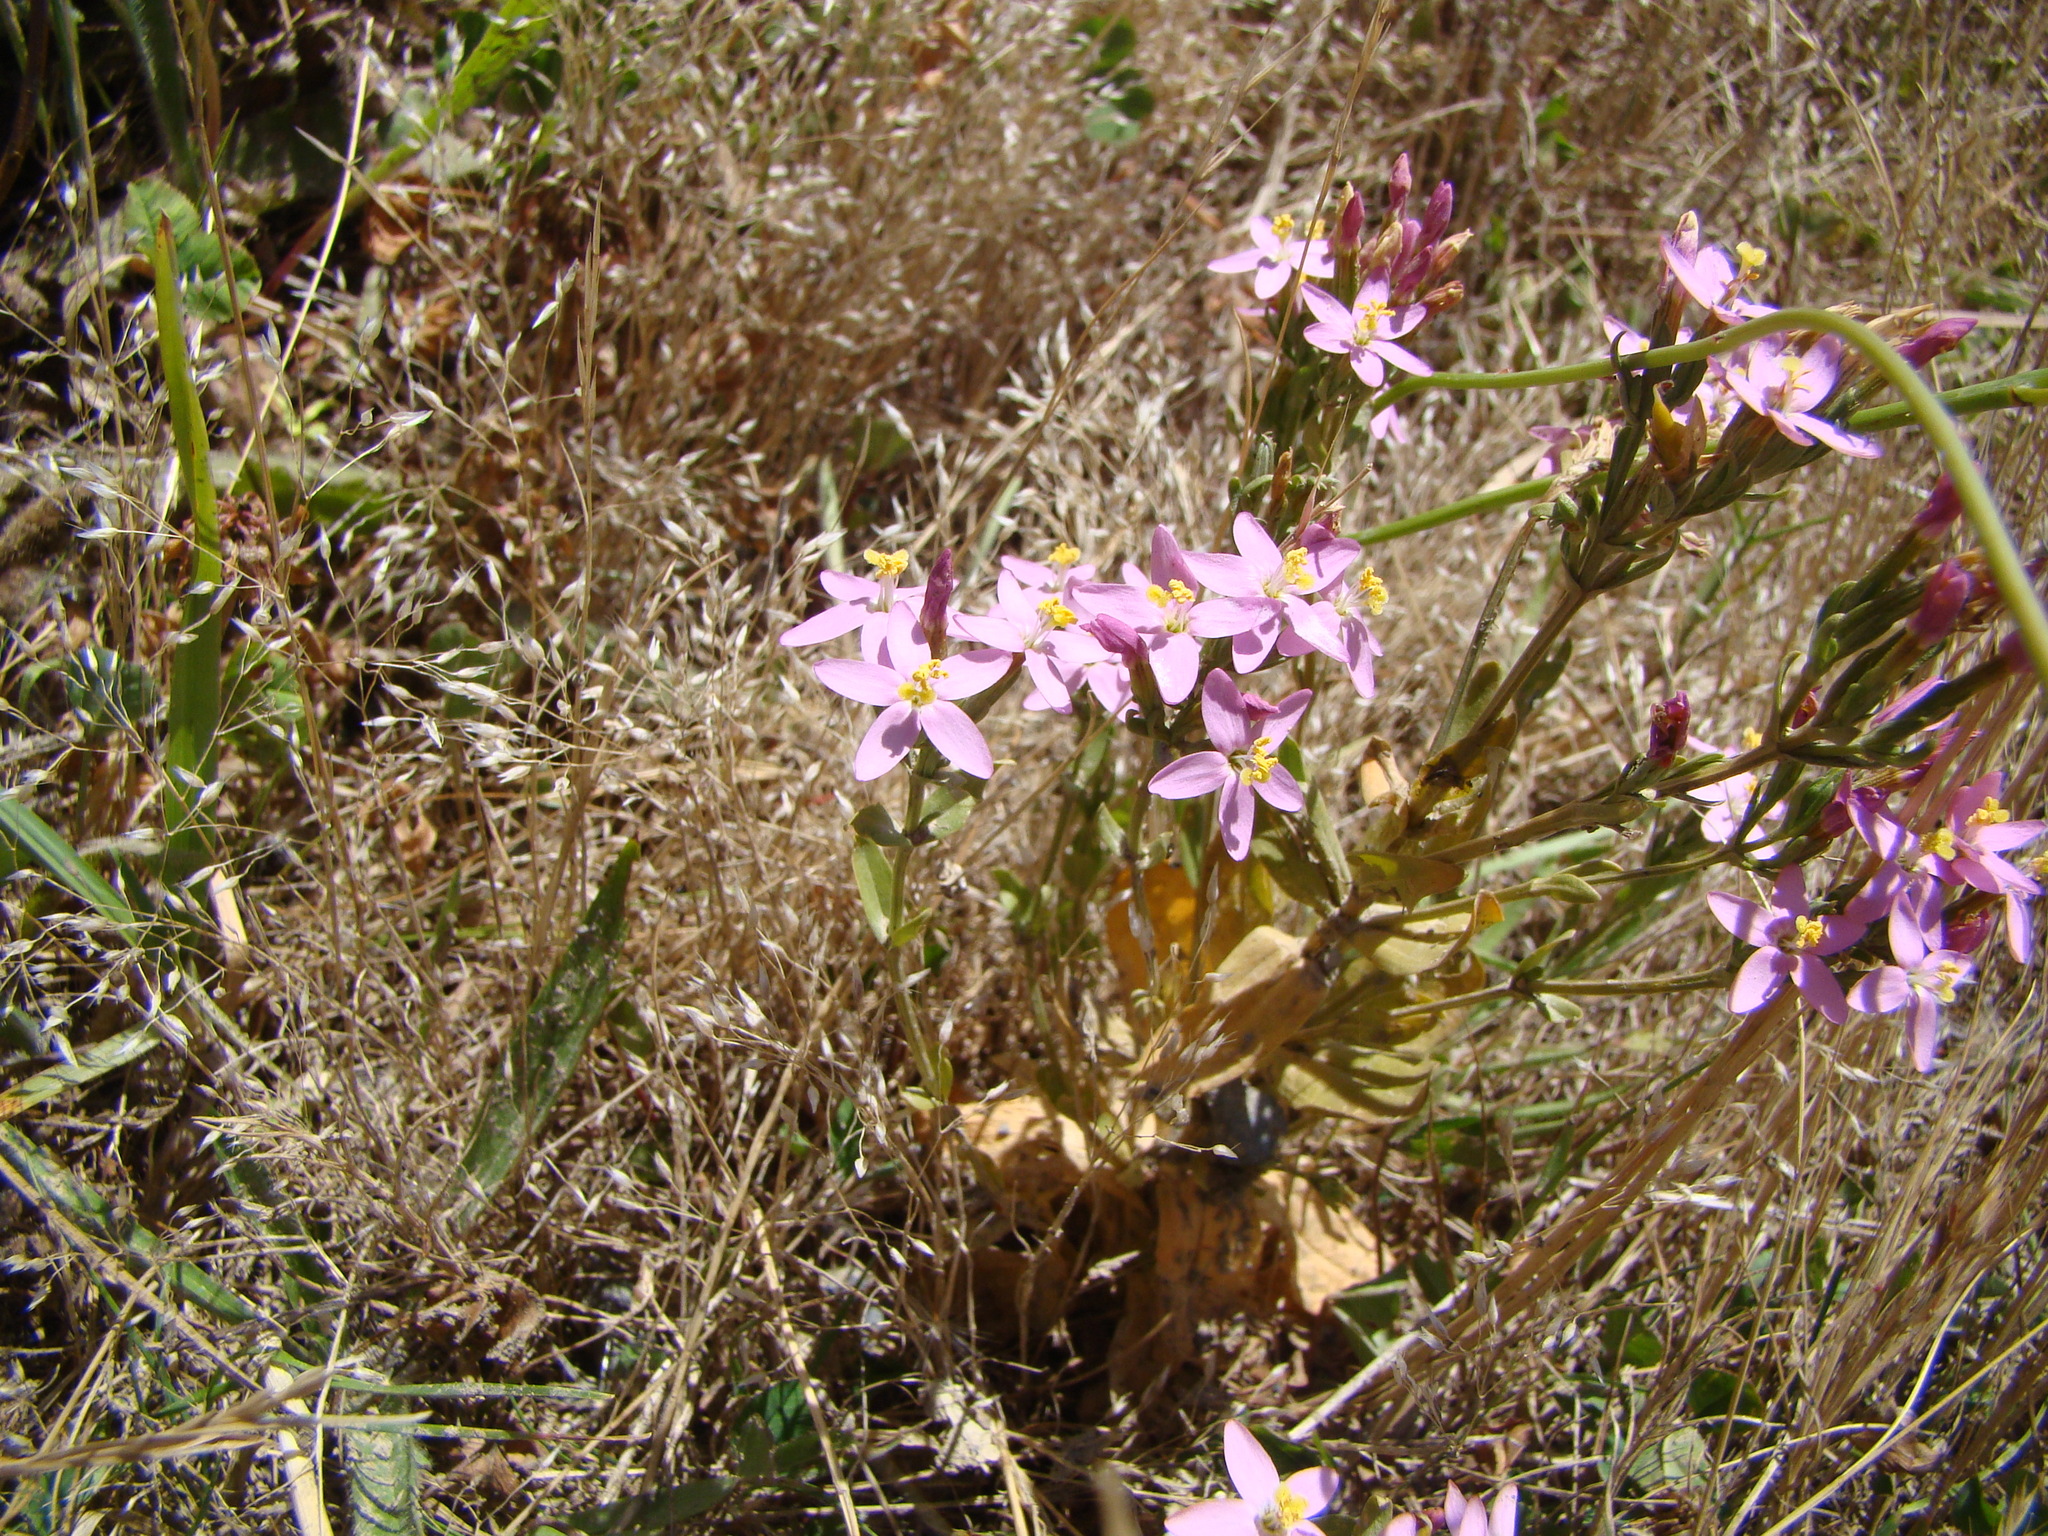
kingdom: Plantae
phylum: Tracheophyta
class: Magnoliopsida
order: Gentianales
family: Gentianaceae
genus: Centaurium
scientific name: Centaurium erythraea
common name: Common centaury
